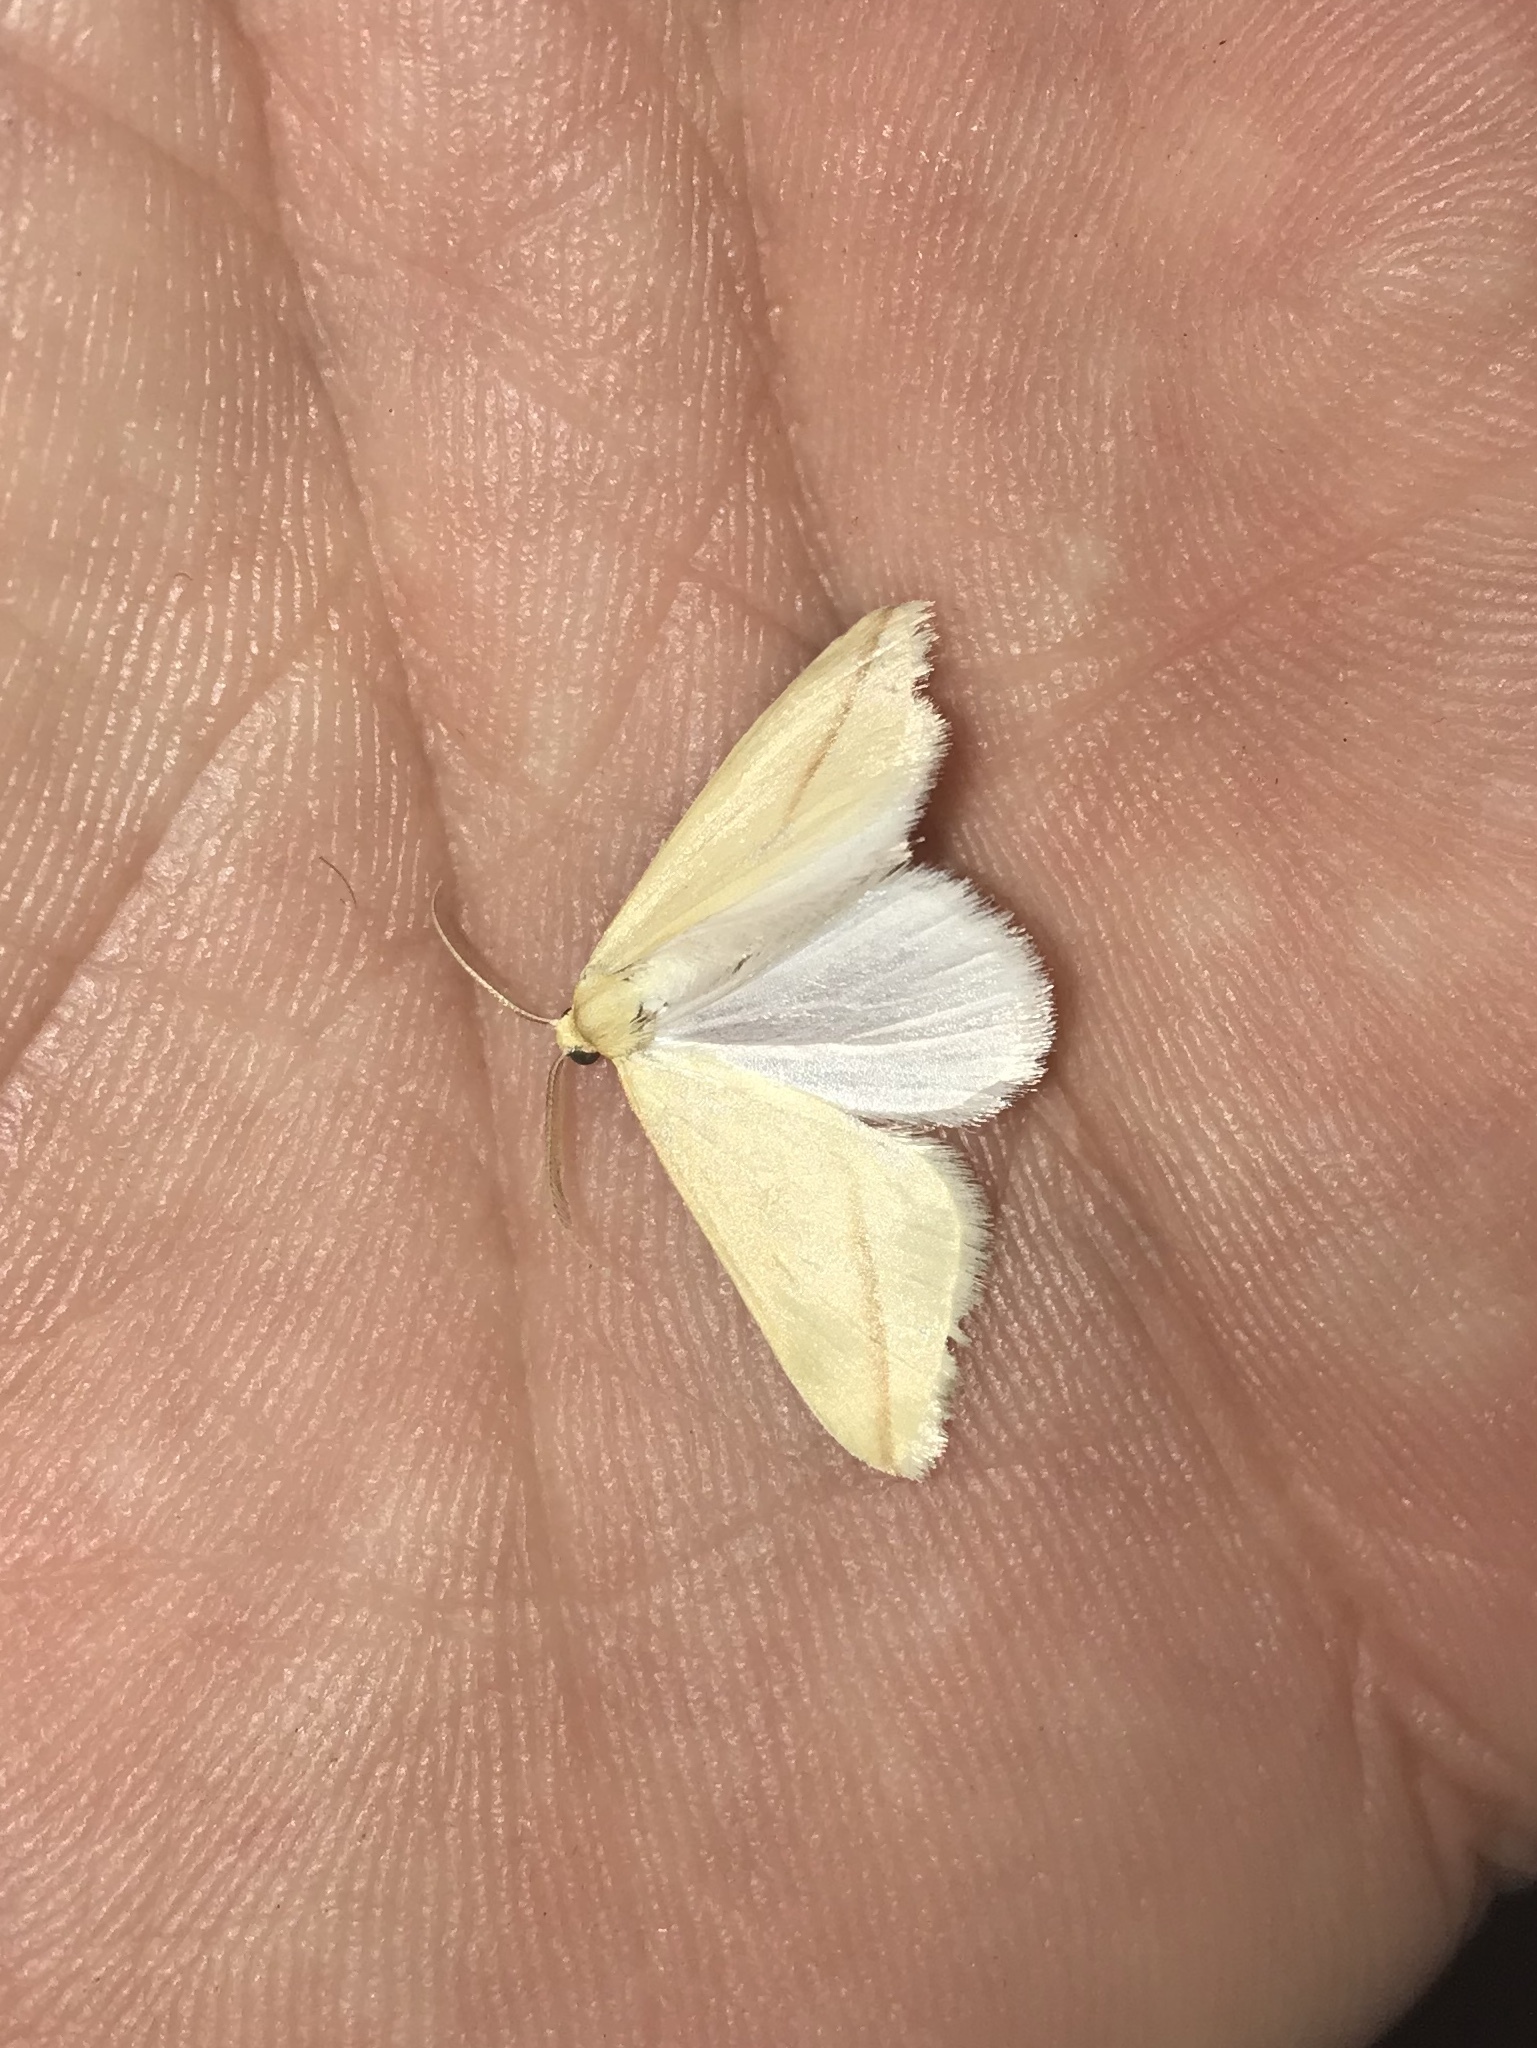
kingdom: Animalia
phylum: Arthropoda
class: Insecta
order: Lepidoptera
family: Geometridae
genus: Rhodometra
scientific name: Rhodometra sacraria
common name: Vestal
